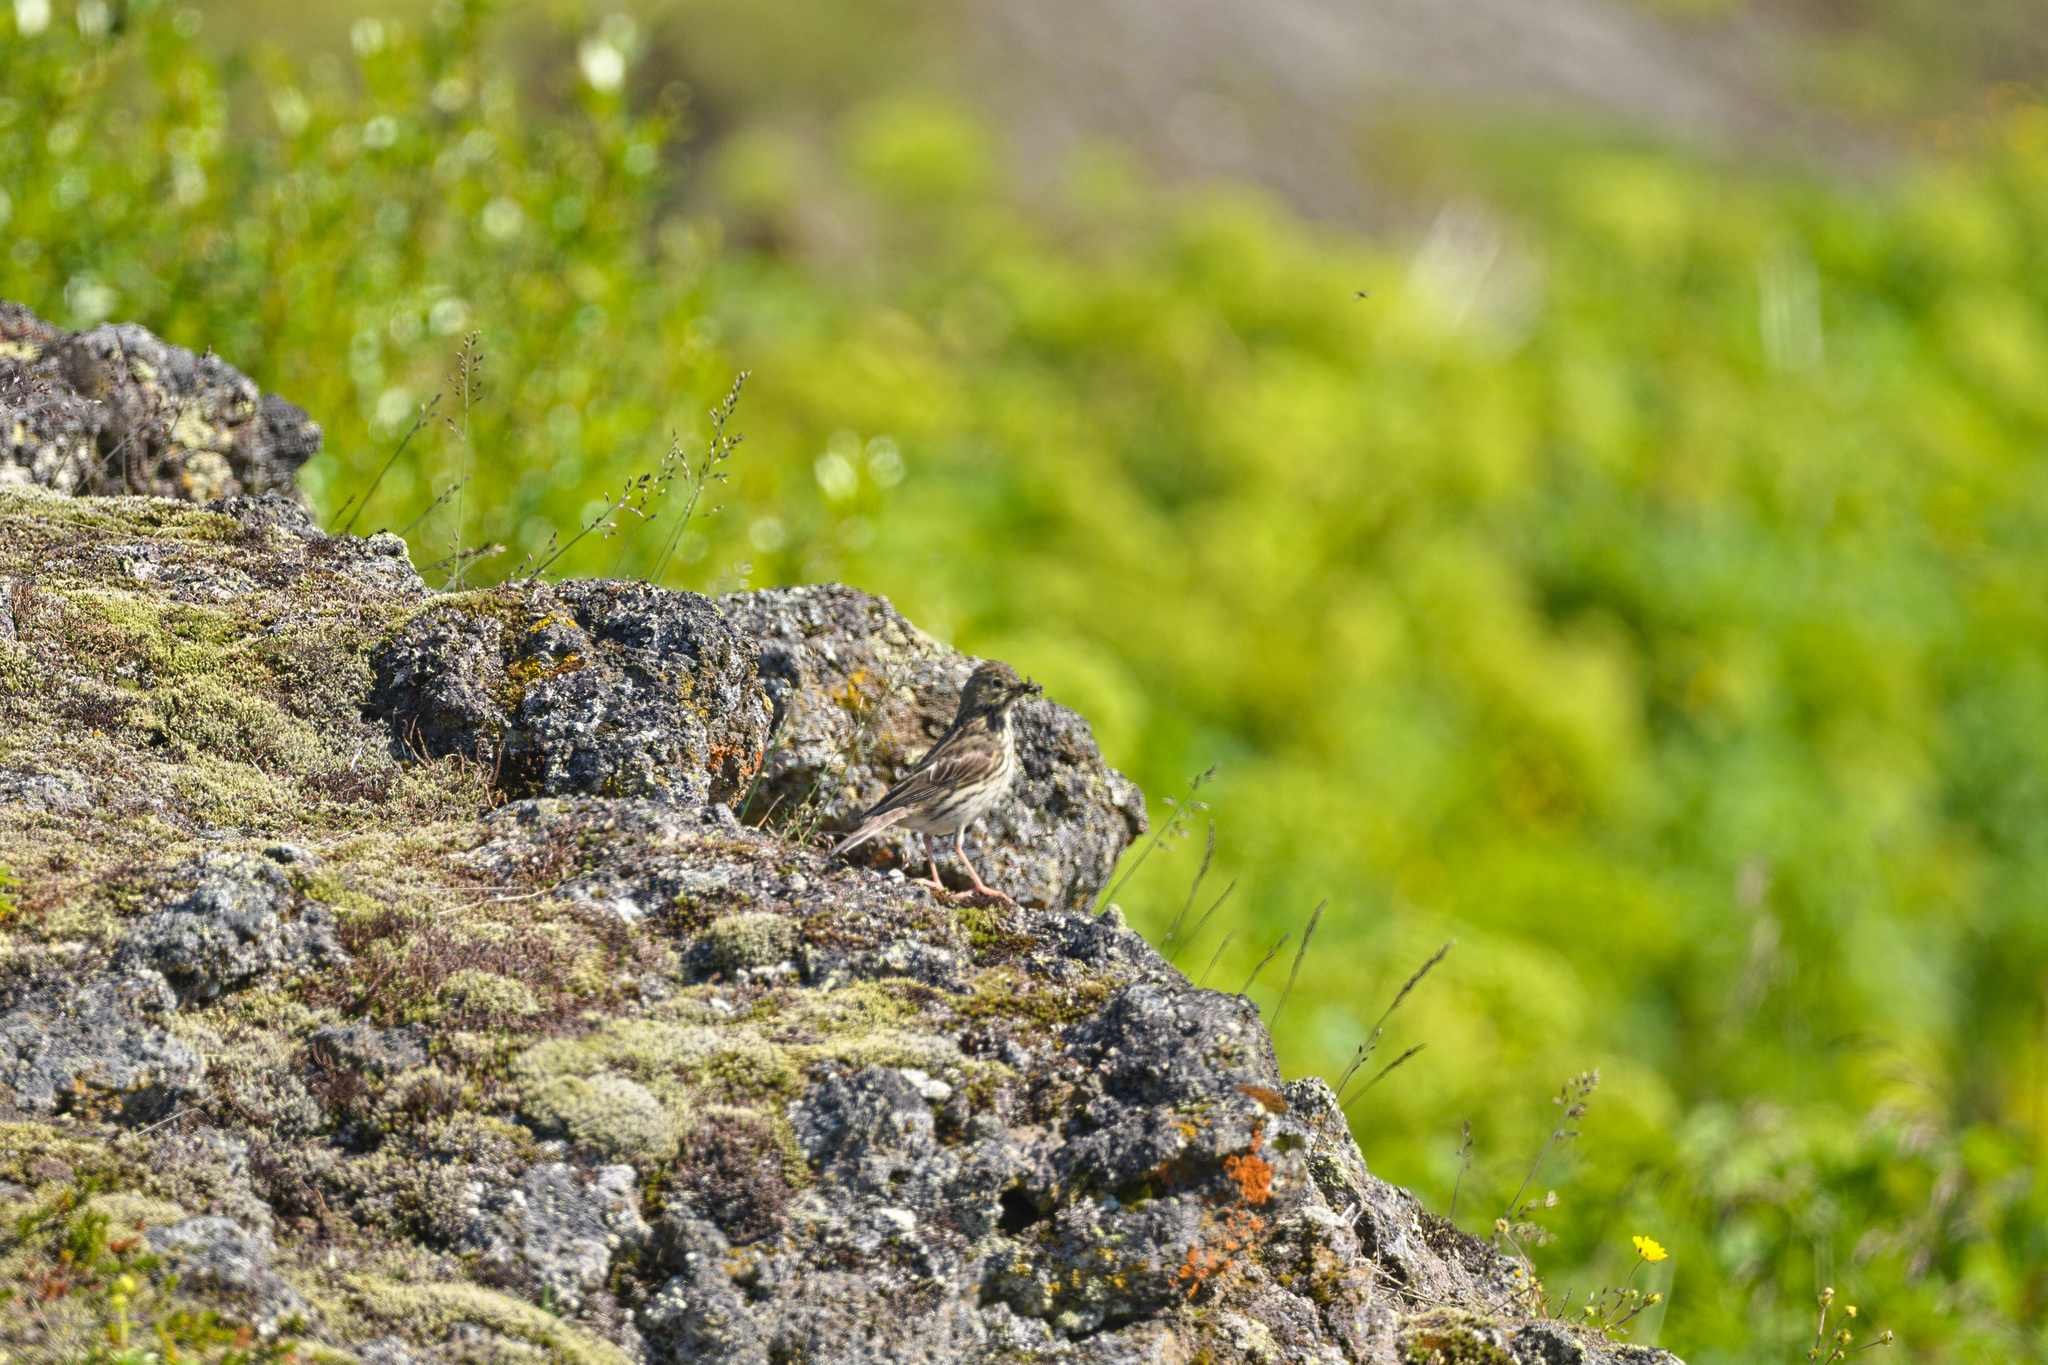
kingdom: Animalia
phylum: Chordata
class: Aves
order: Passeriformes
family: Motacillidae
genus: Anthus
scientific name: Anthus pratensis
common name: Meadow pipit
